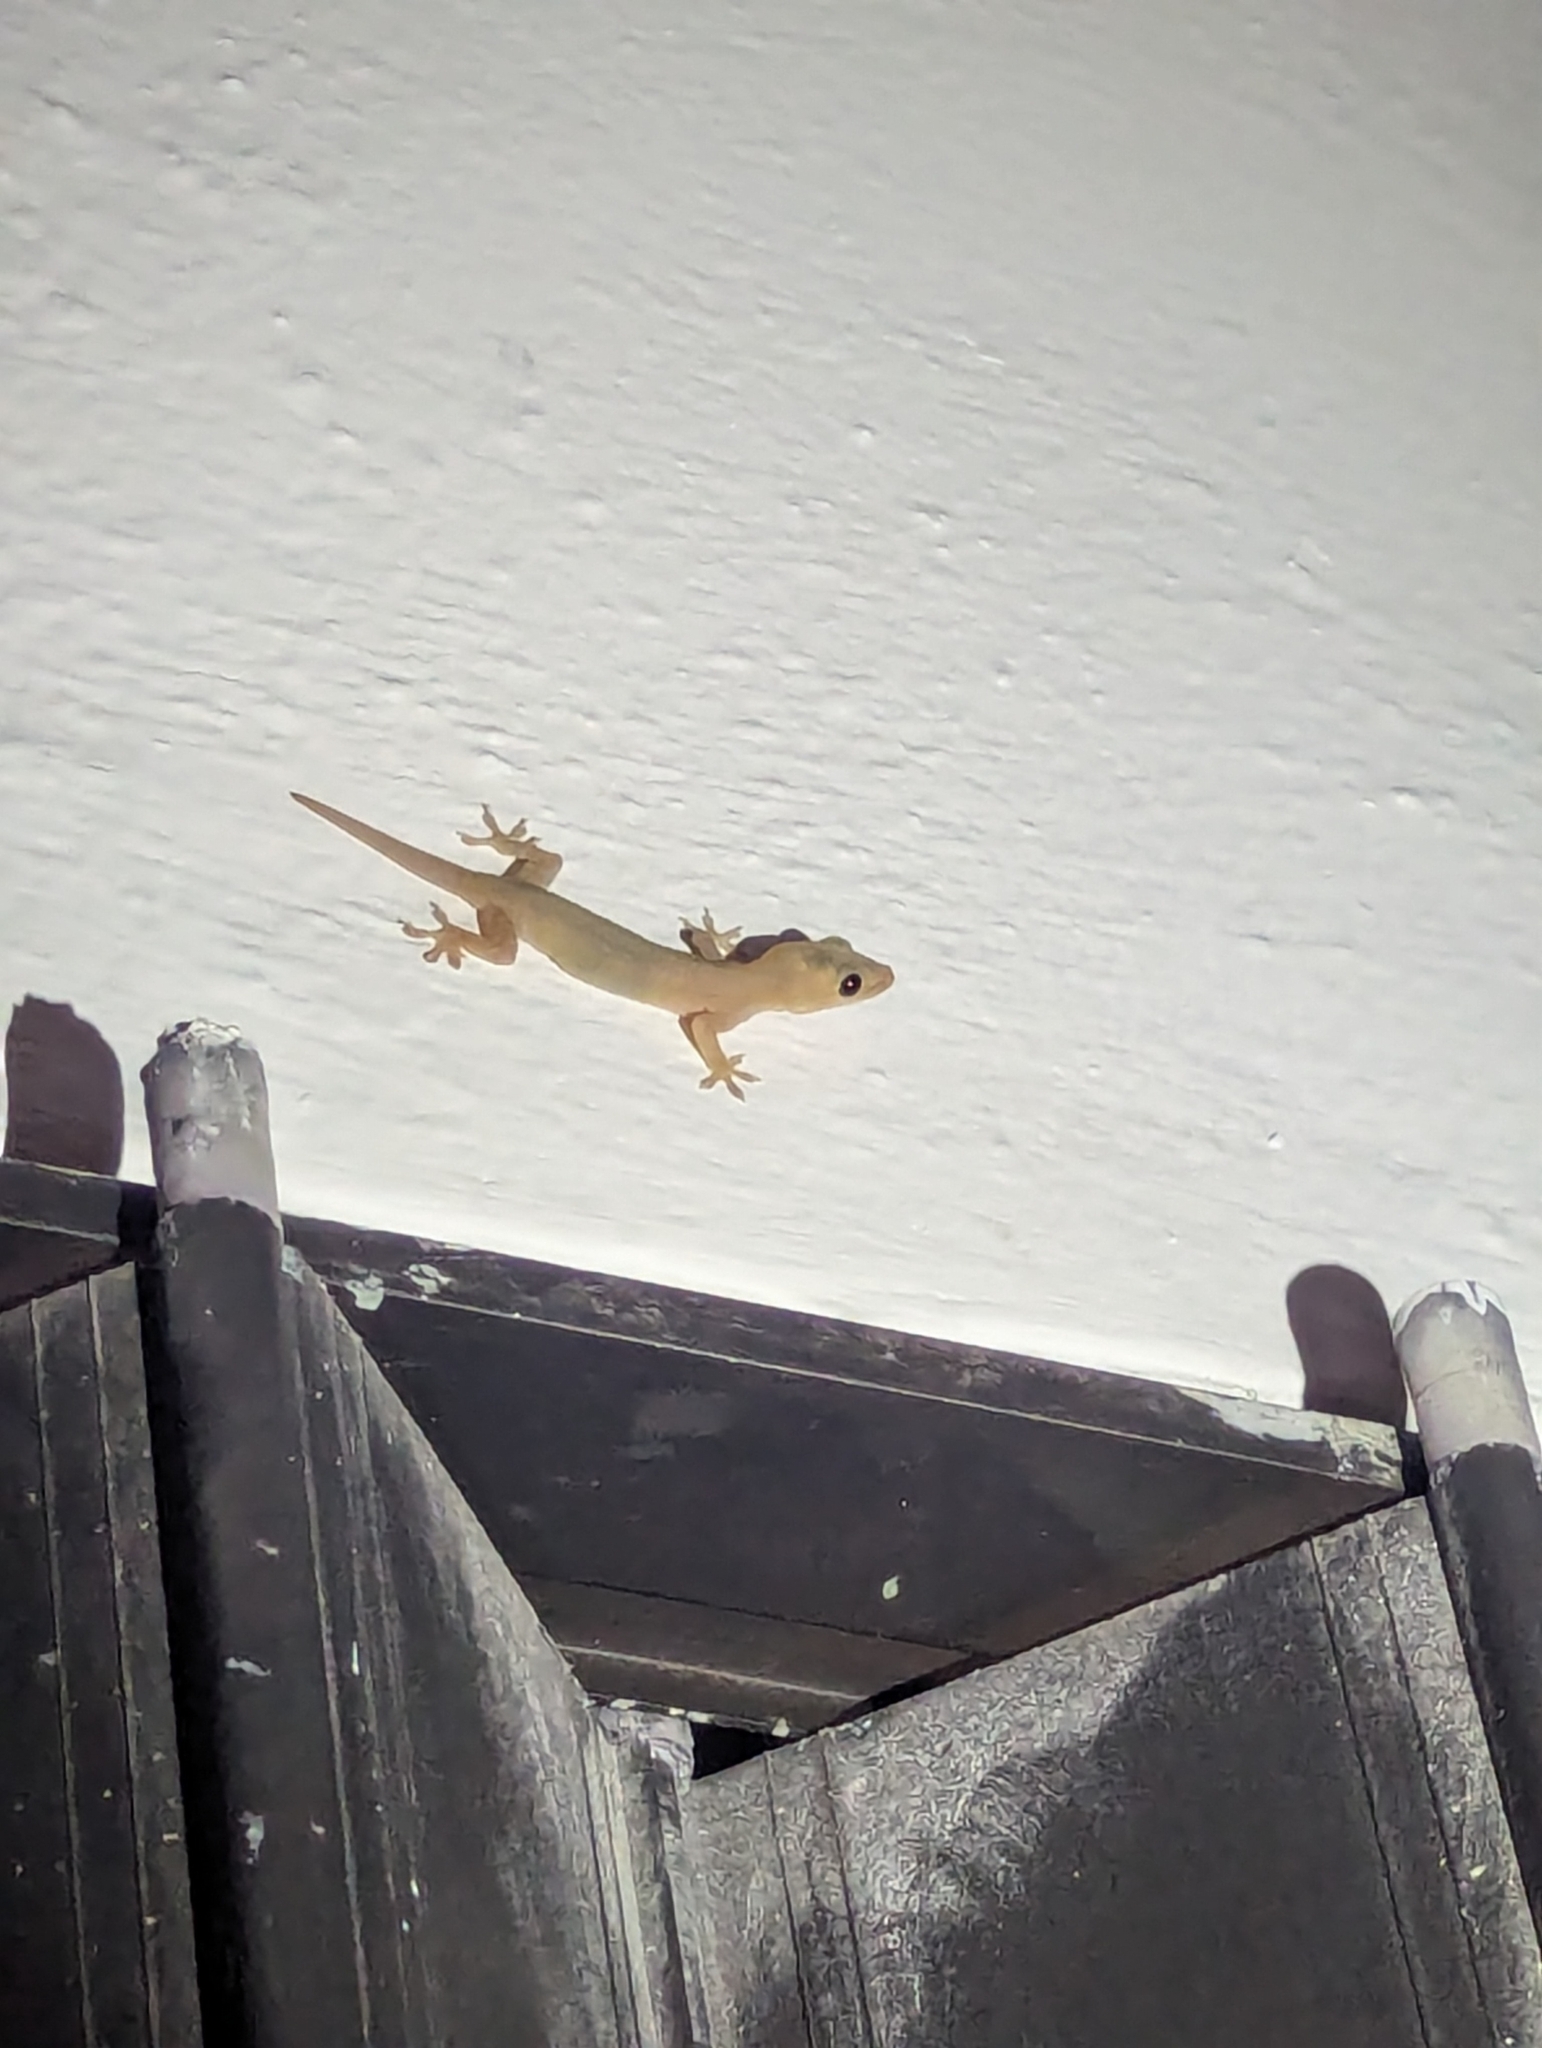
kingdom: Animalia
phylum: Chordata
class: Squamata
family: Gekkonidae
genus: Hemidactylus
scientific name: Hemidactylus frenatus
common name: Common house gecko
